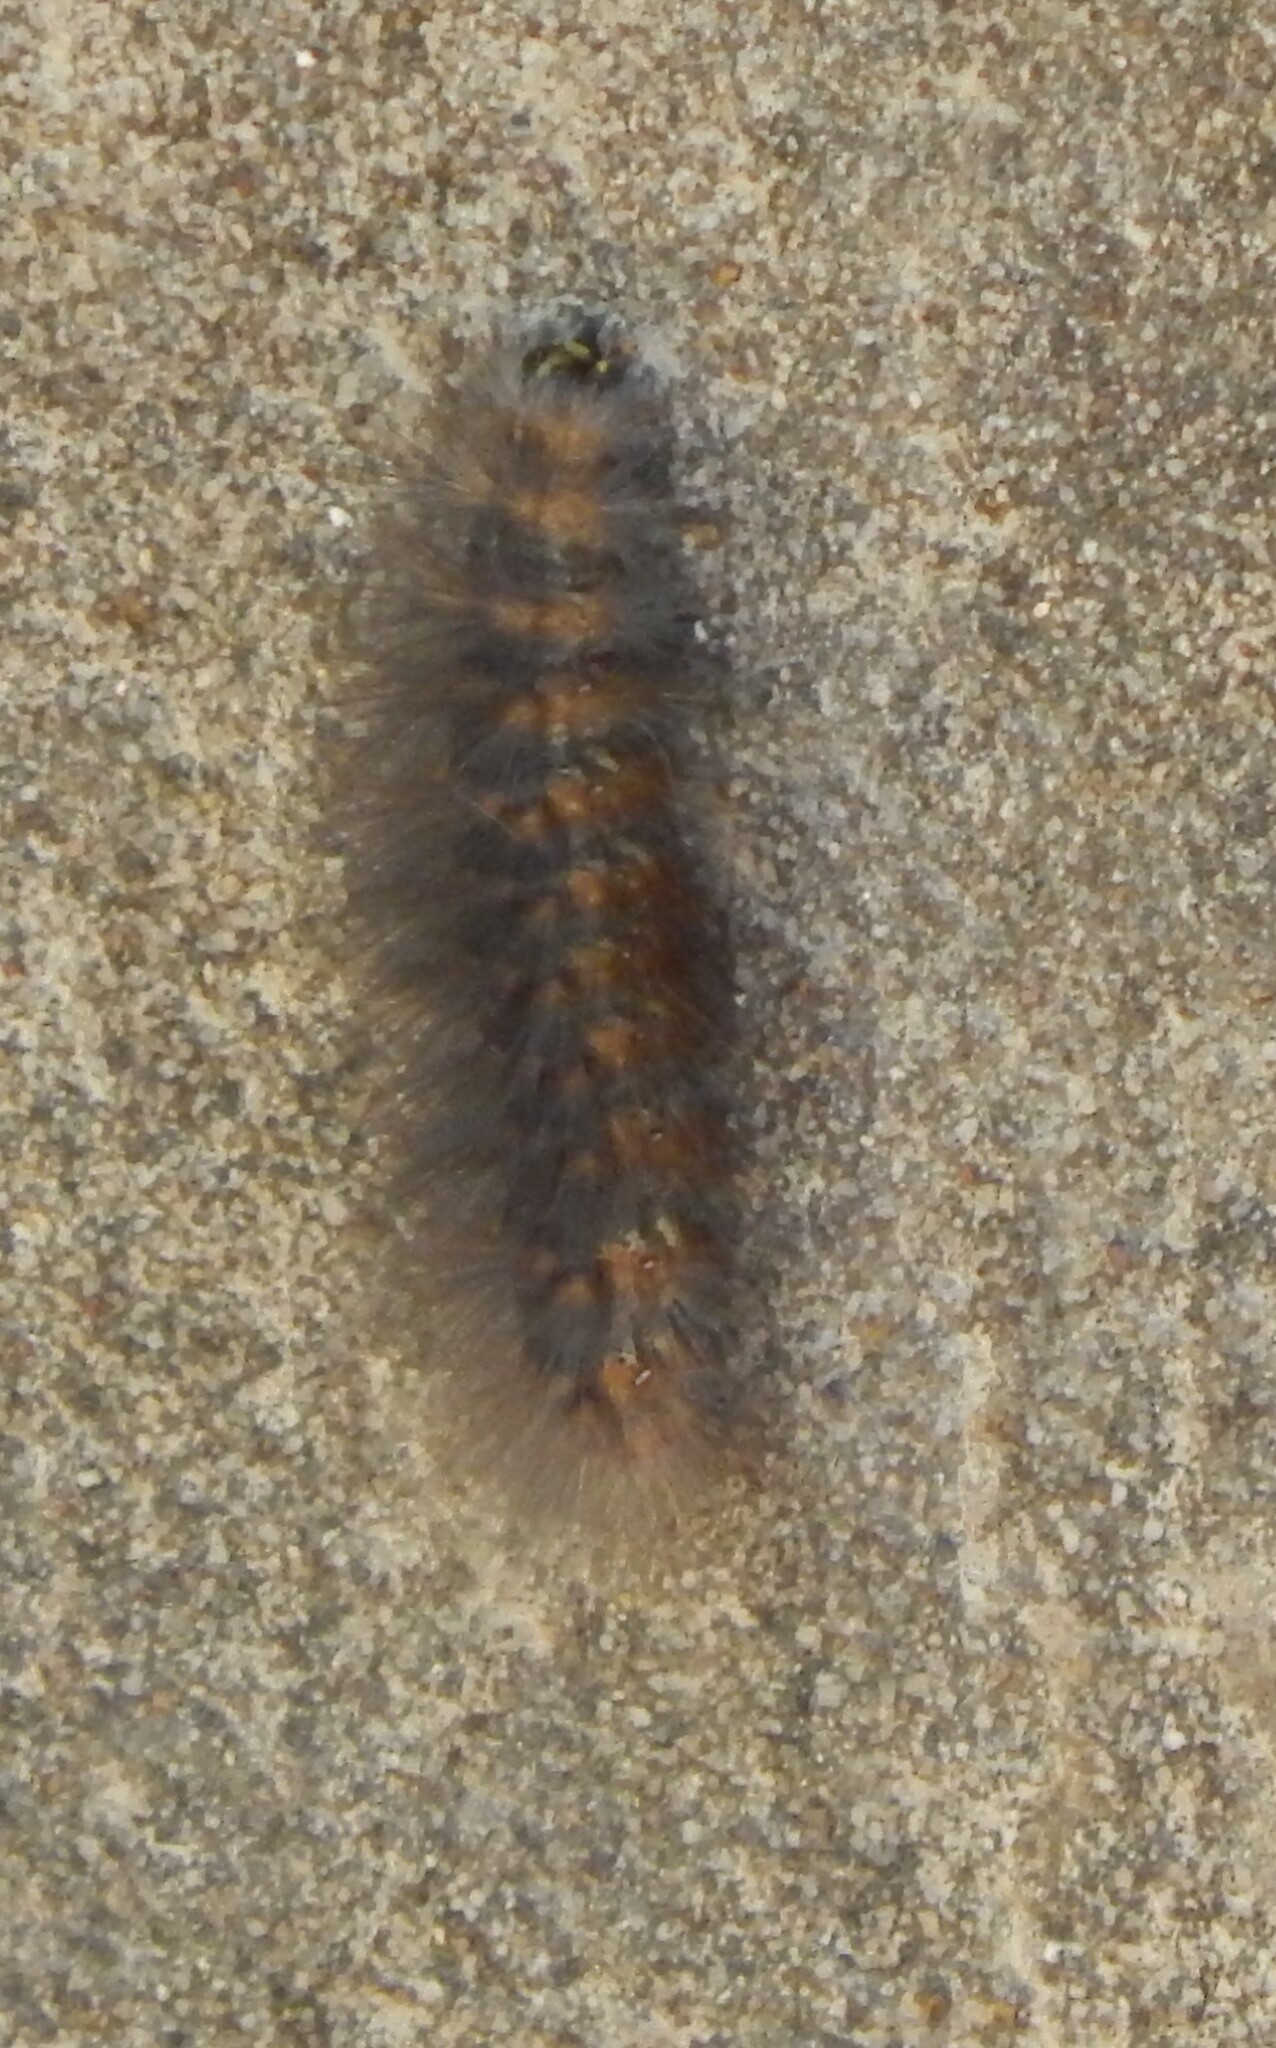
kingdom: Animalia
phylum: Arthropoda
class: Insecta
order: Lepidoptera
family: Erebidae
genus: Estigmene
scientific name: Estigmene acrea
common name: Salt marsh moth
